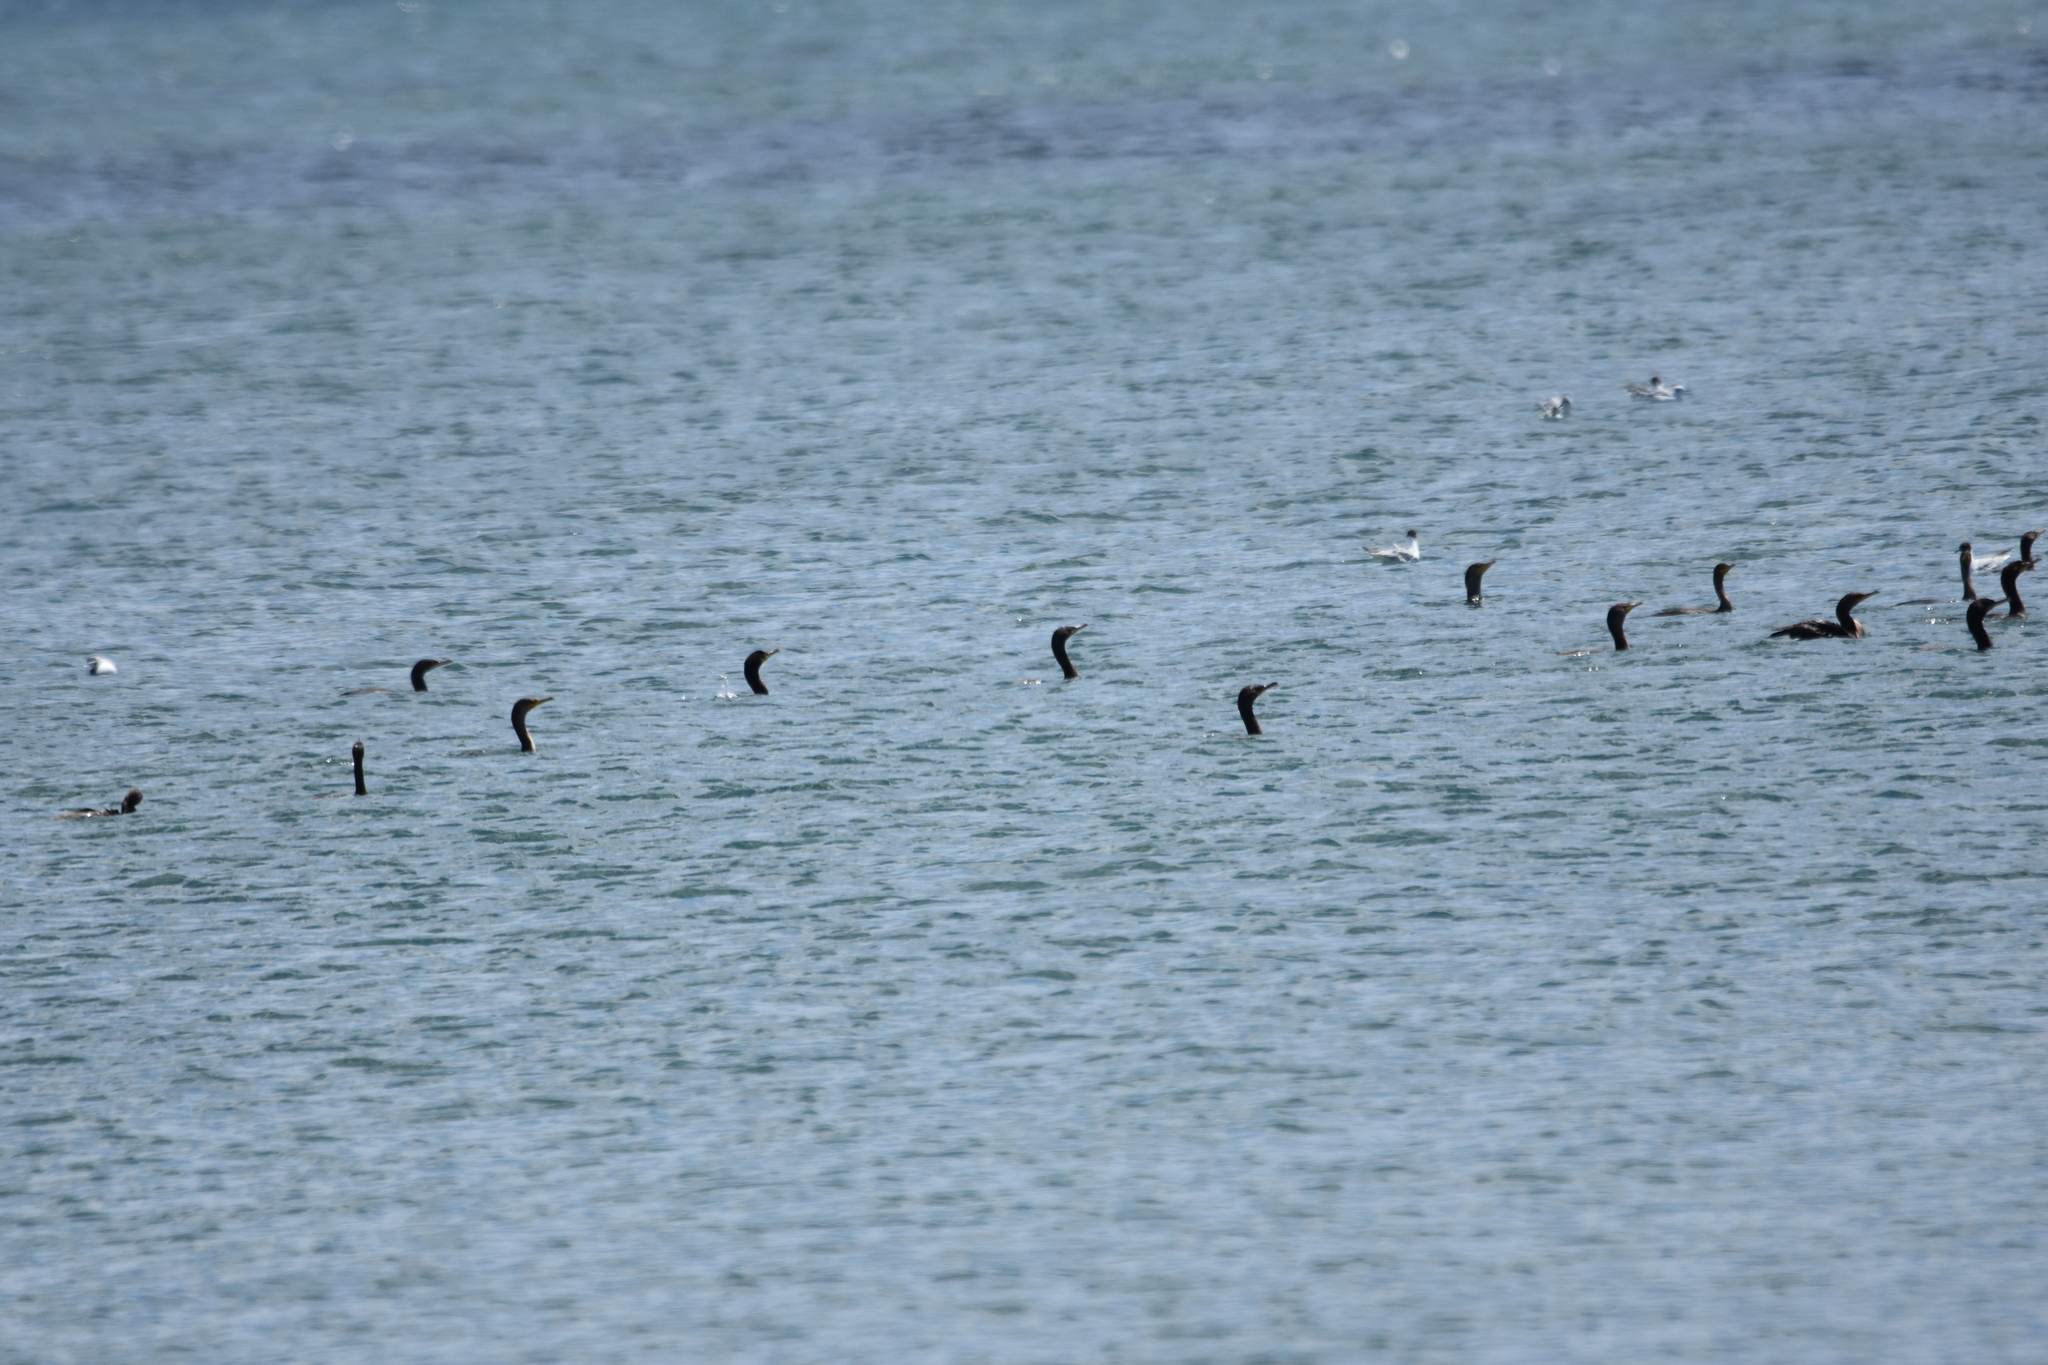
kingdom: Animalia
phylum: Chordata
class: Aves
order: Suliformes
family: Phalacrocoracidae
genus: Phalacrocorax
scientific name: Phalacrocorax auritus
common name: Double-crested cormorant
